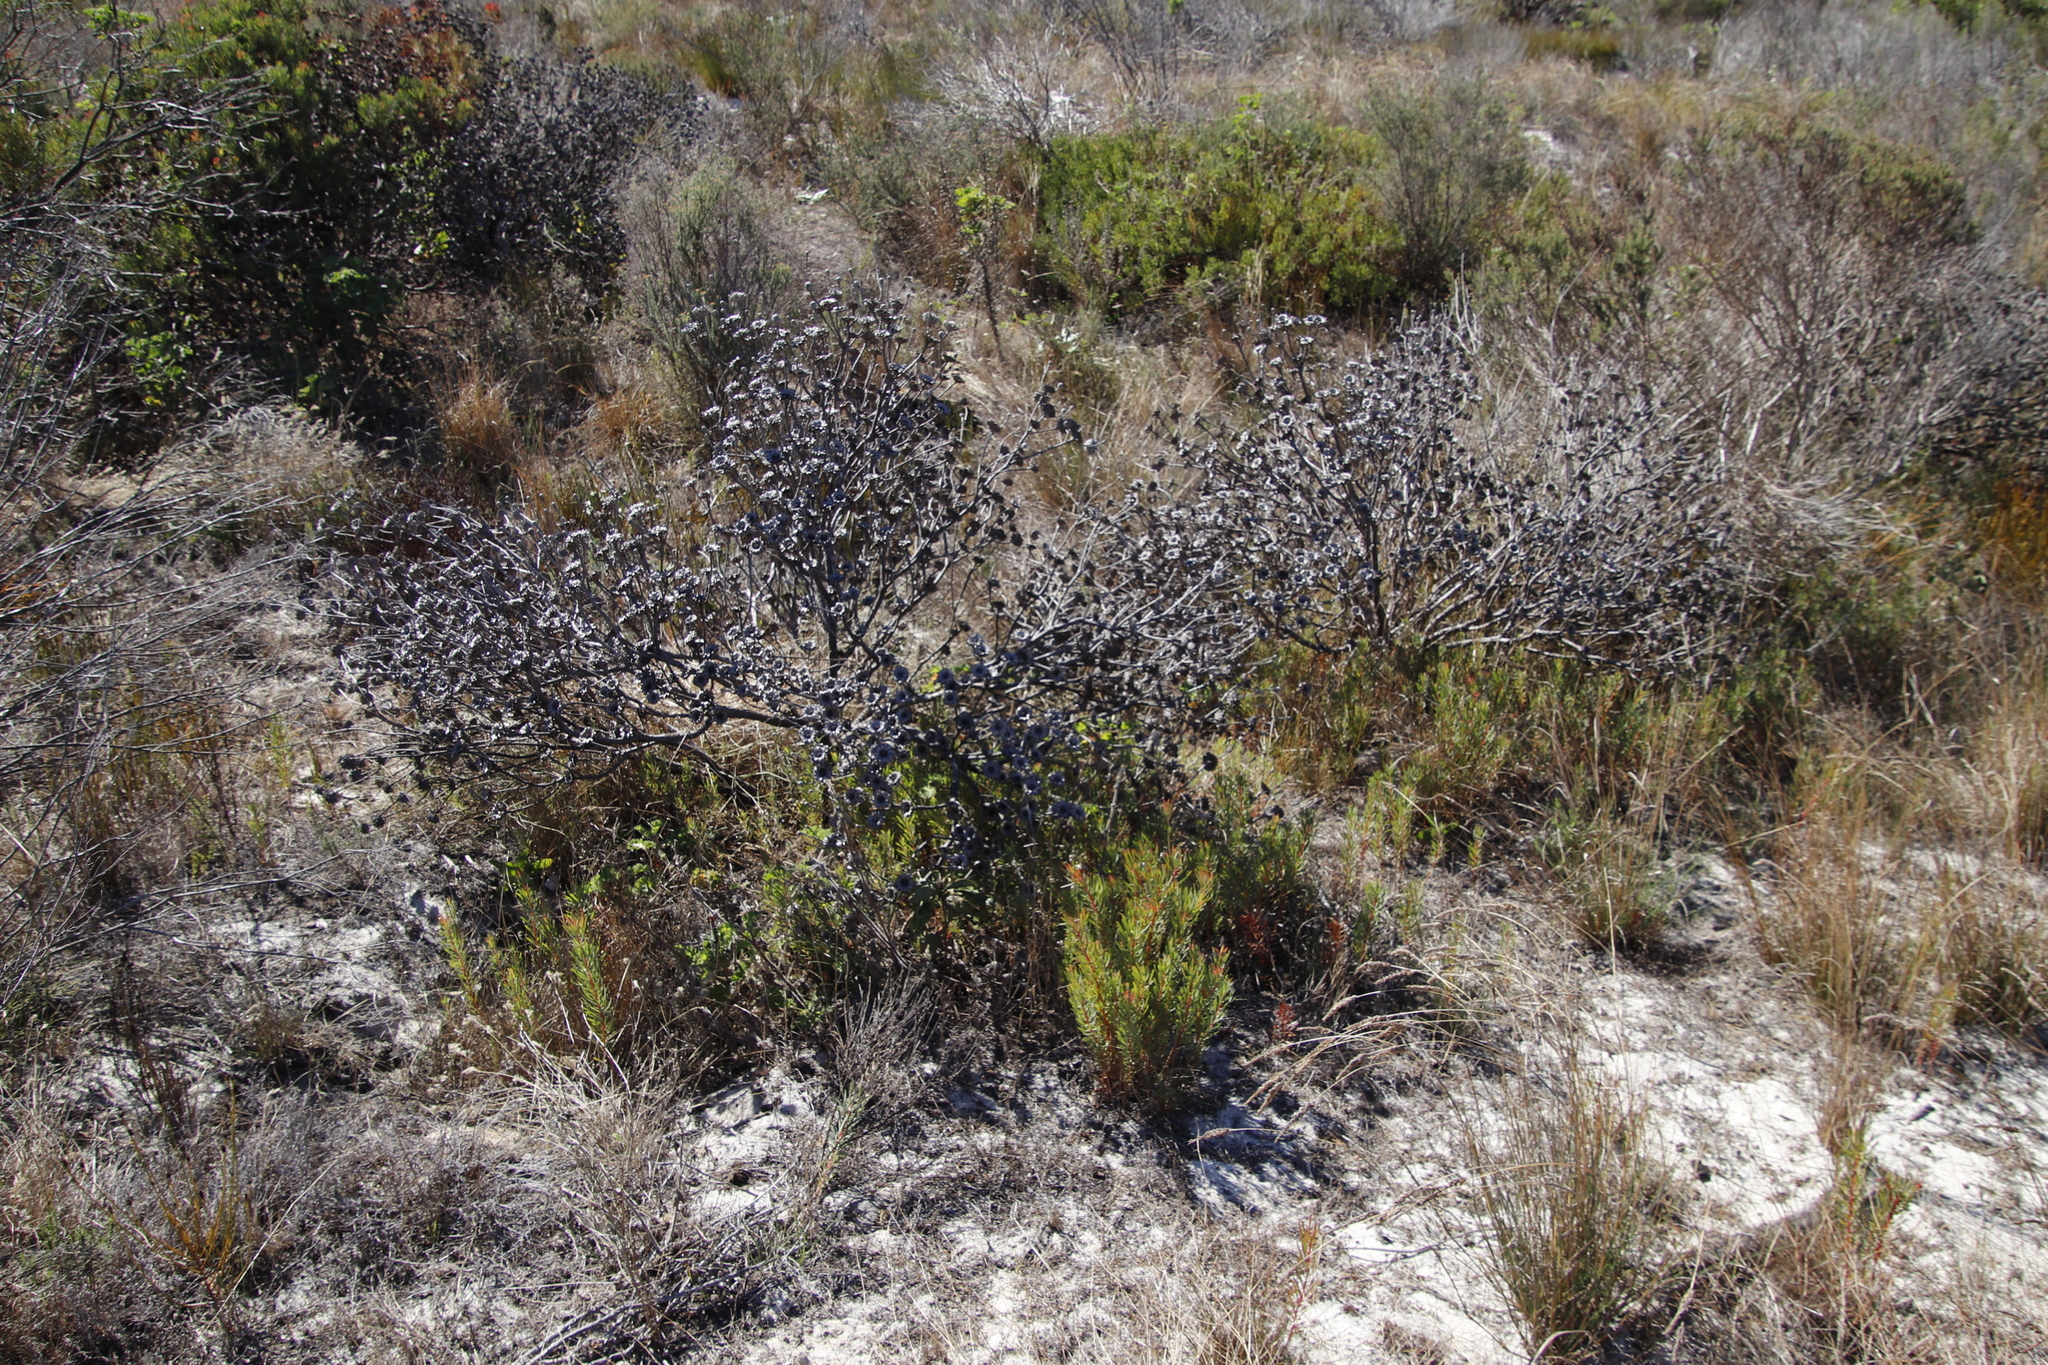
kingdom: Plantae
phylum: Tracheophyta
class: Magnoliopsida
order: Proteales
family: Proteaceae
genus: Protea
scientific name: Protea scolymocephala
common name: Thistle sugarbush
